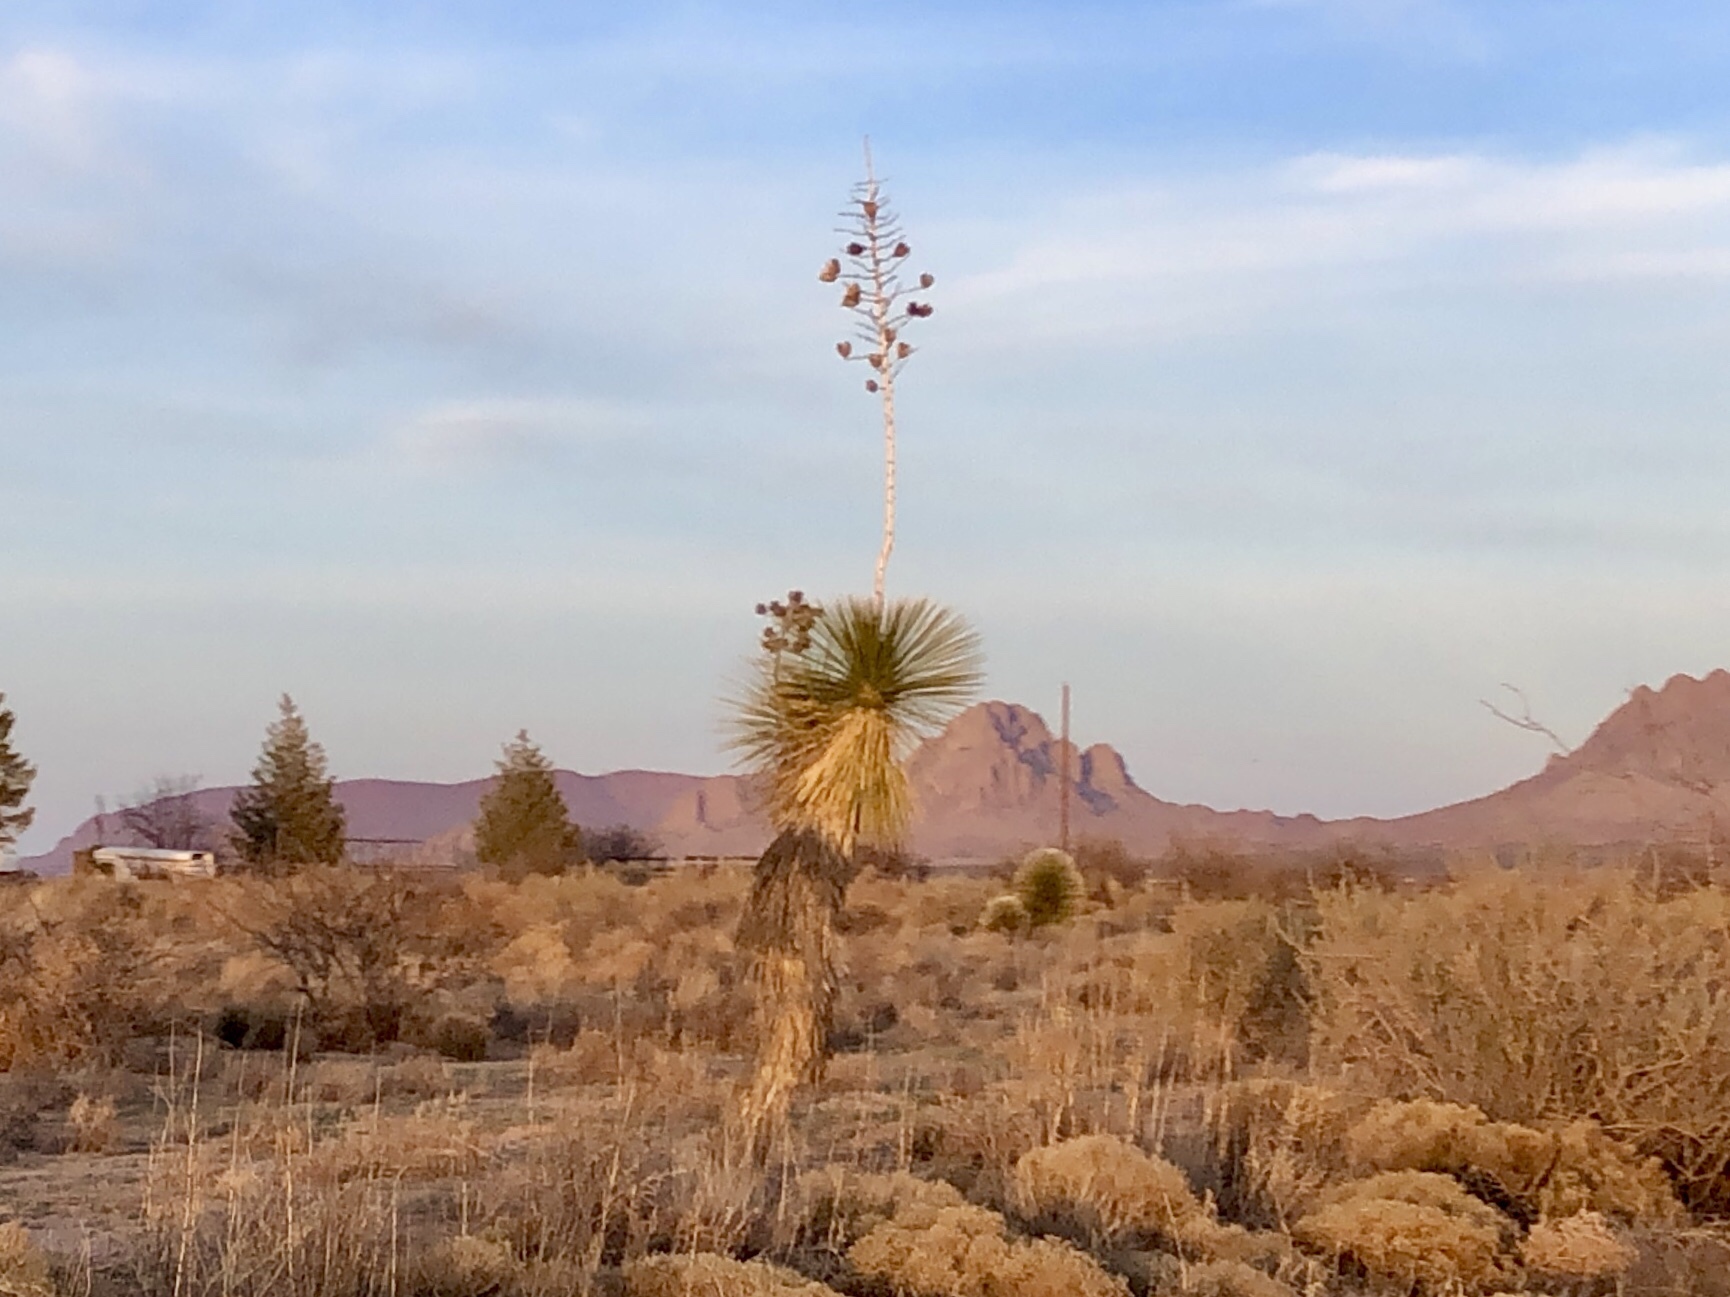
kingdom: Plantae
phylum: Tracheophyta
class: Liliopsida
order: Asparagales
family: Asparagaceae
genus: Yucca
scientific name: Yucca elata
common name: Palmella
